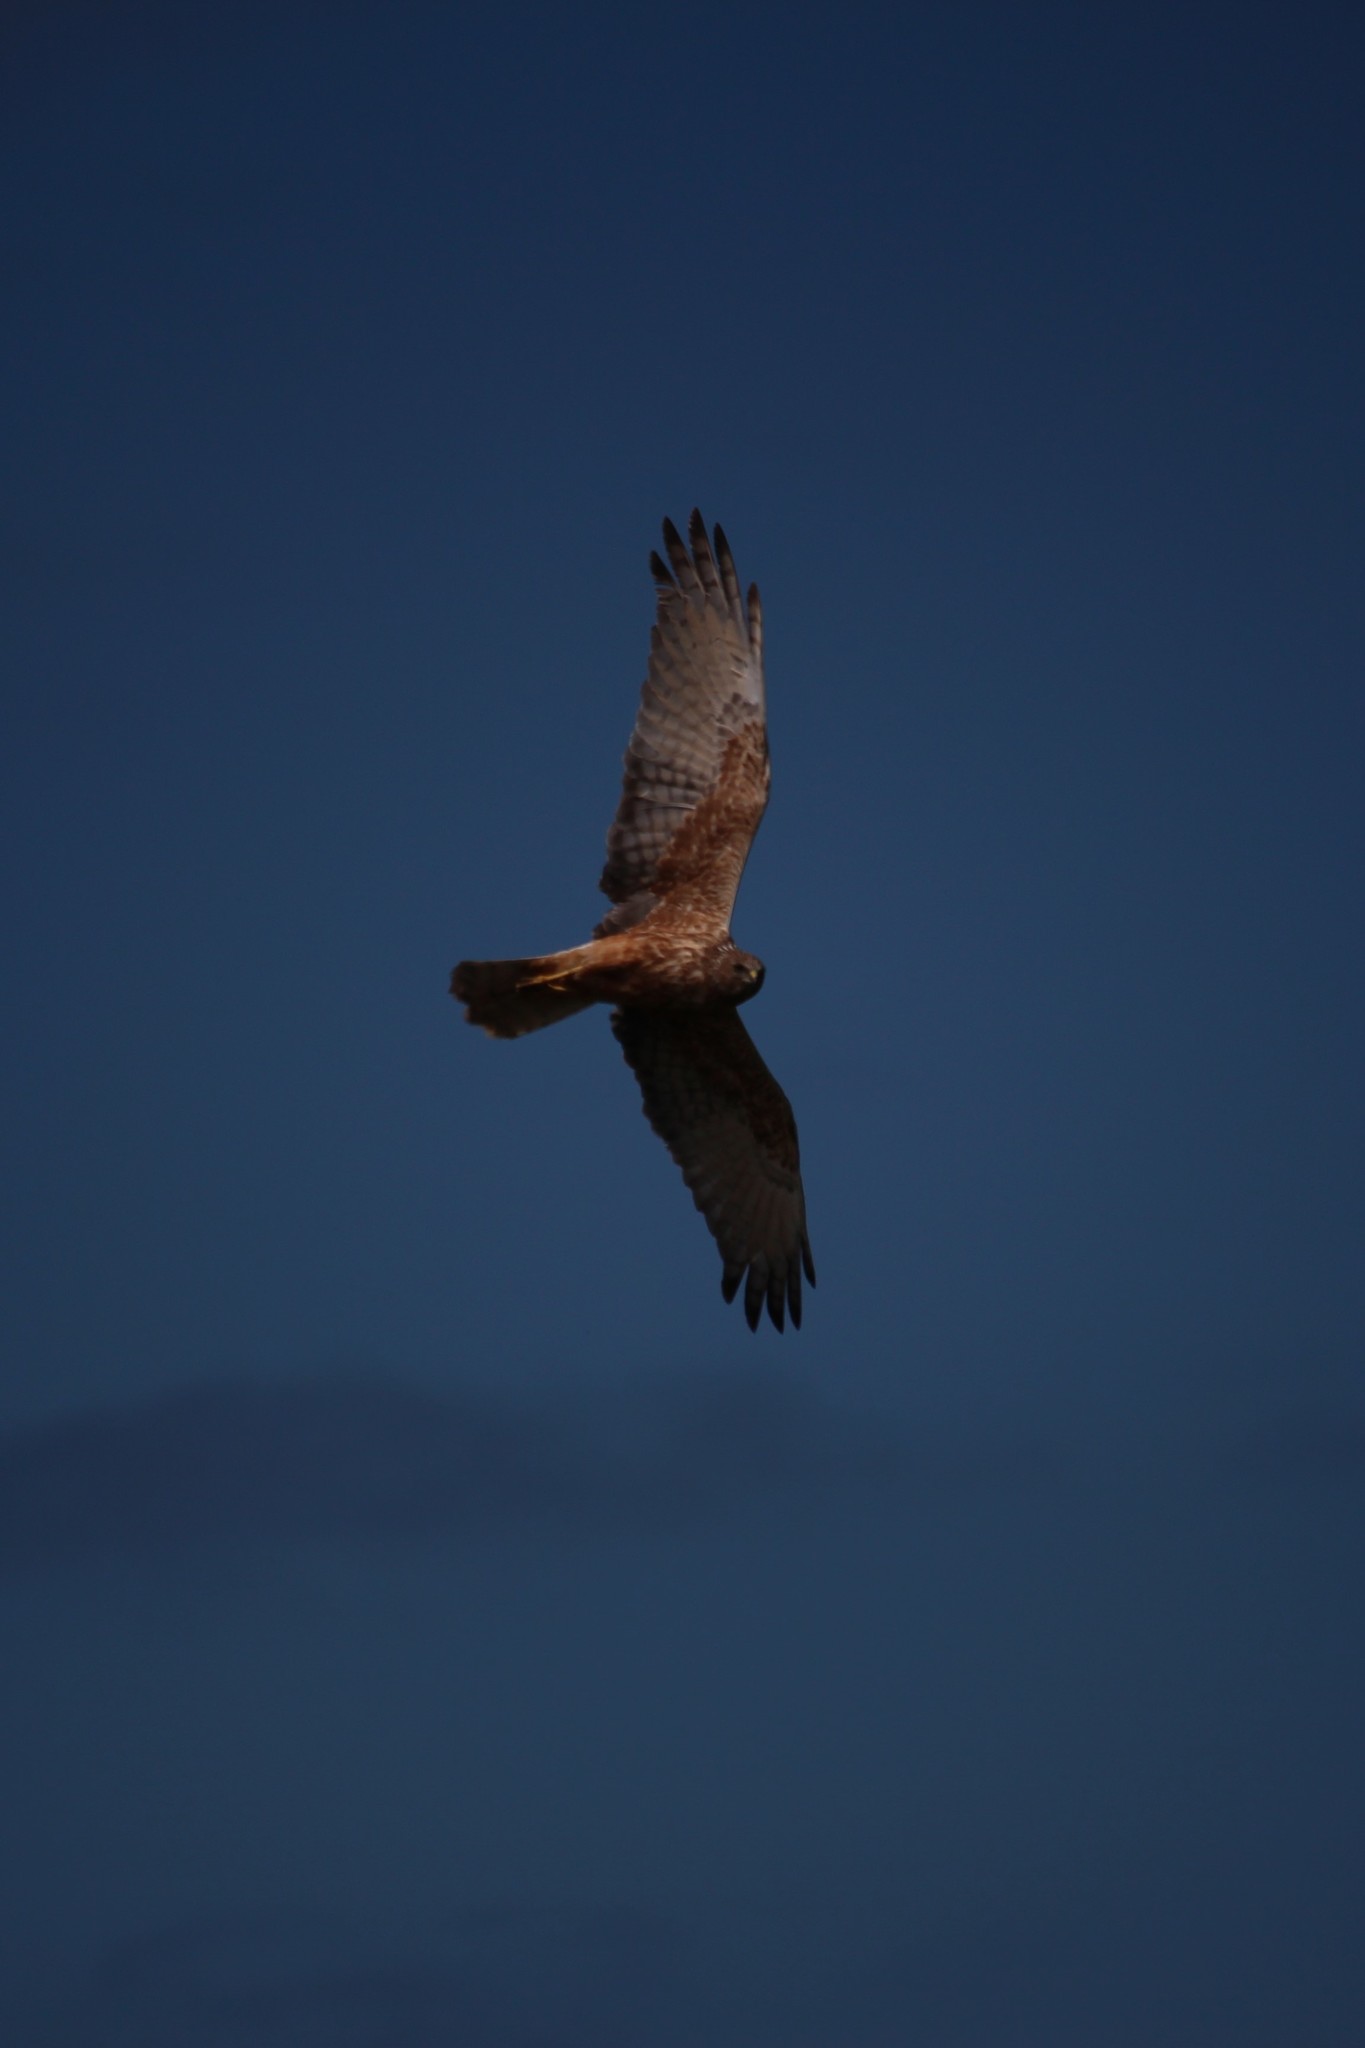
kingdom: Animalia
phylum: Chordata
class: Aves
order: Accipitriformes
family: Accipitridae
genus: Circus
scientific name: Circus approximans
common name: Swamp harrier
